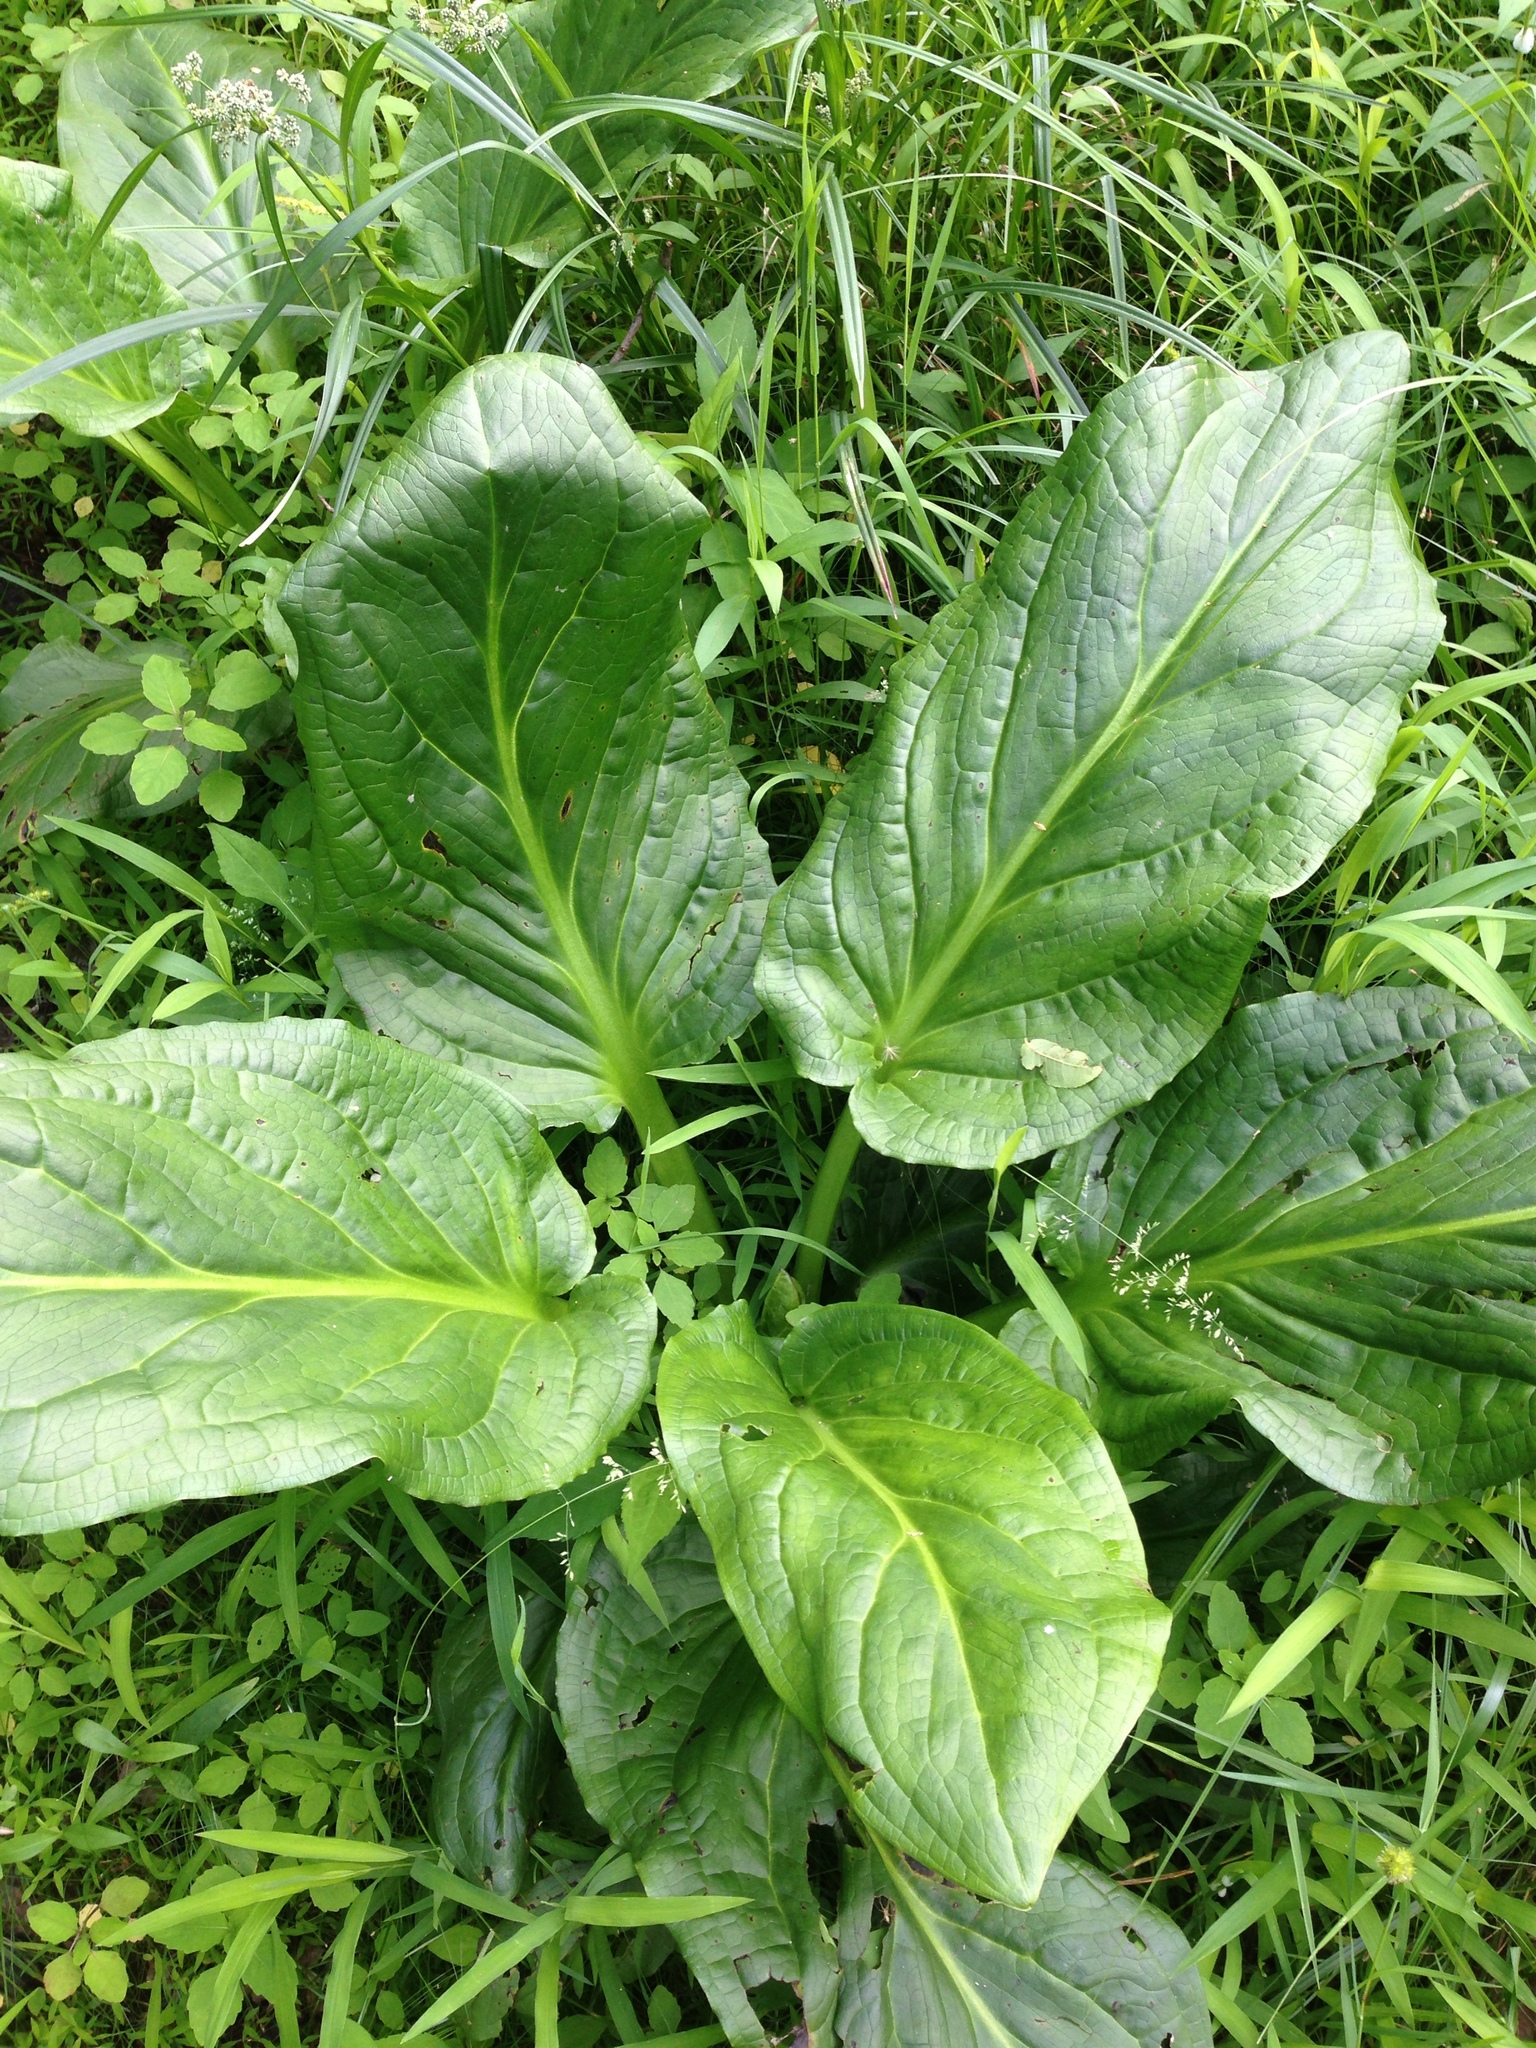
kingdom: Plantae
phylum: Tracheophyta
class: Liliopsida
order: Alismatales
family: Araceae
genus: Symplocarpus
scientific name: Symplocarpus foetidus
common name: Eastern skunk cabbage
